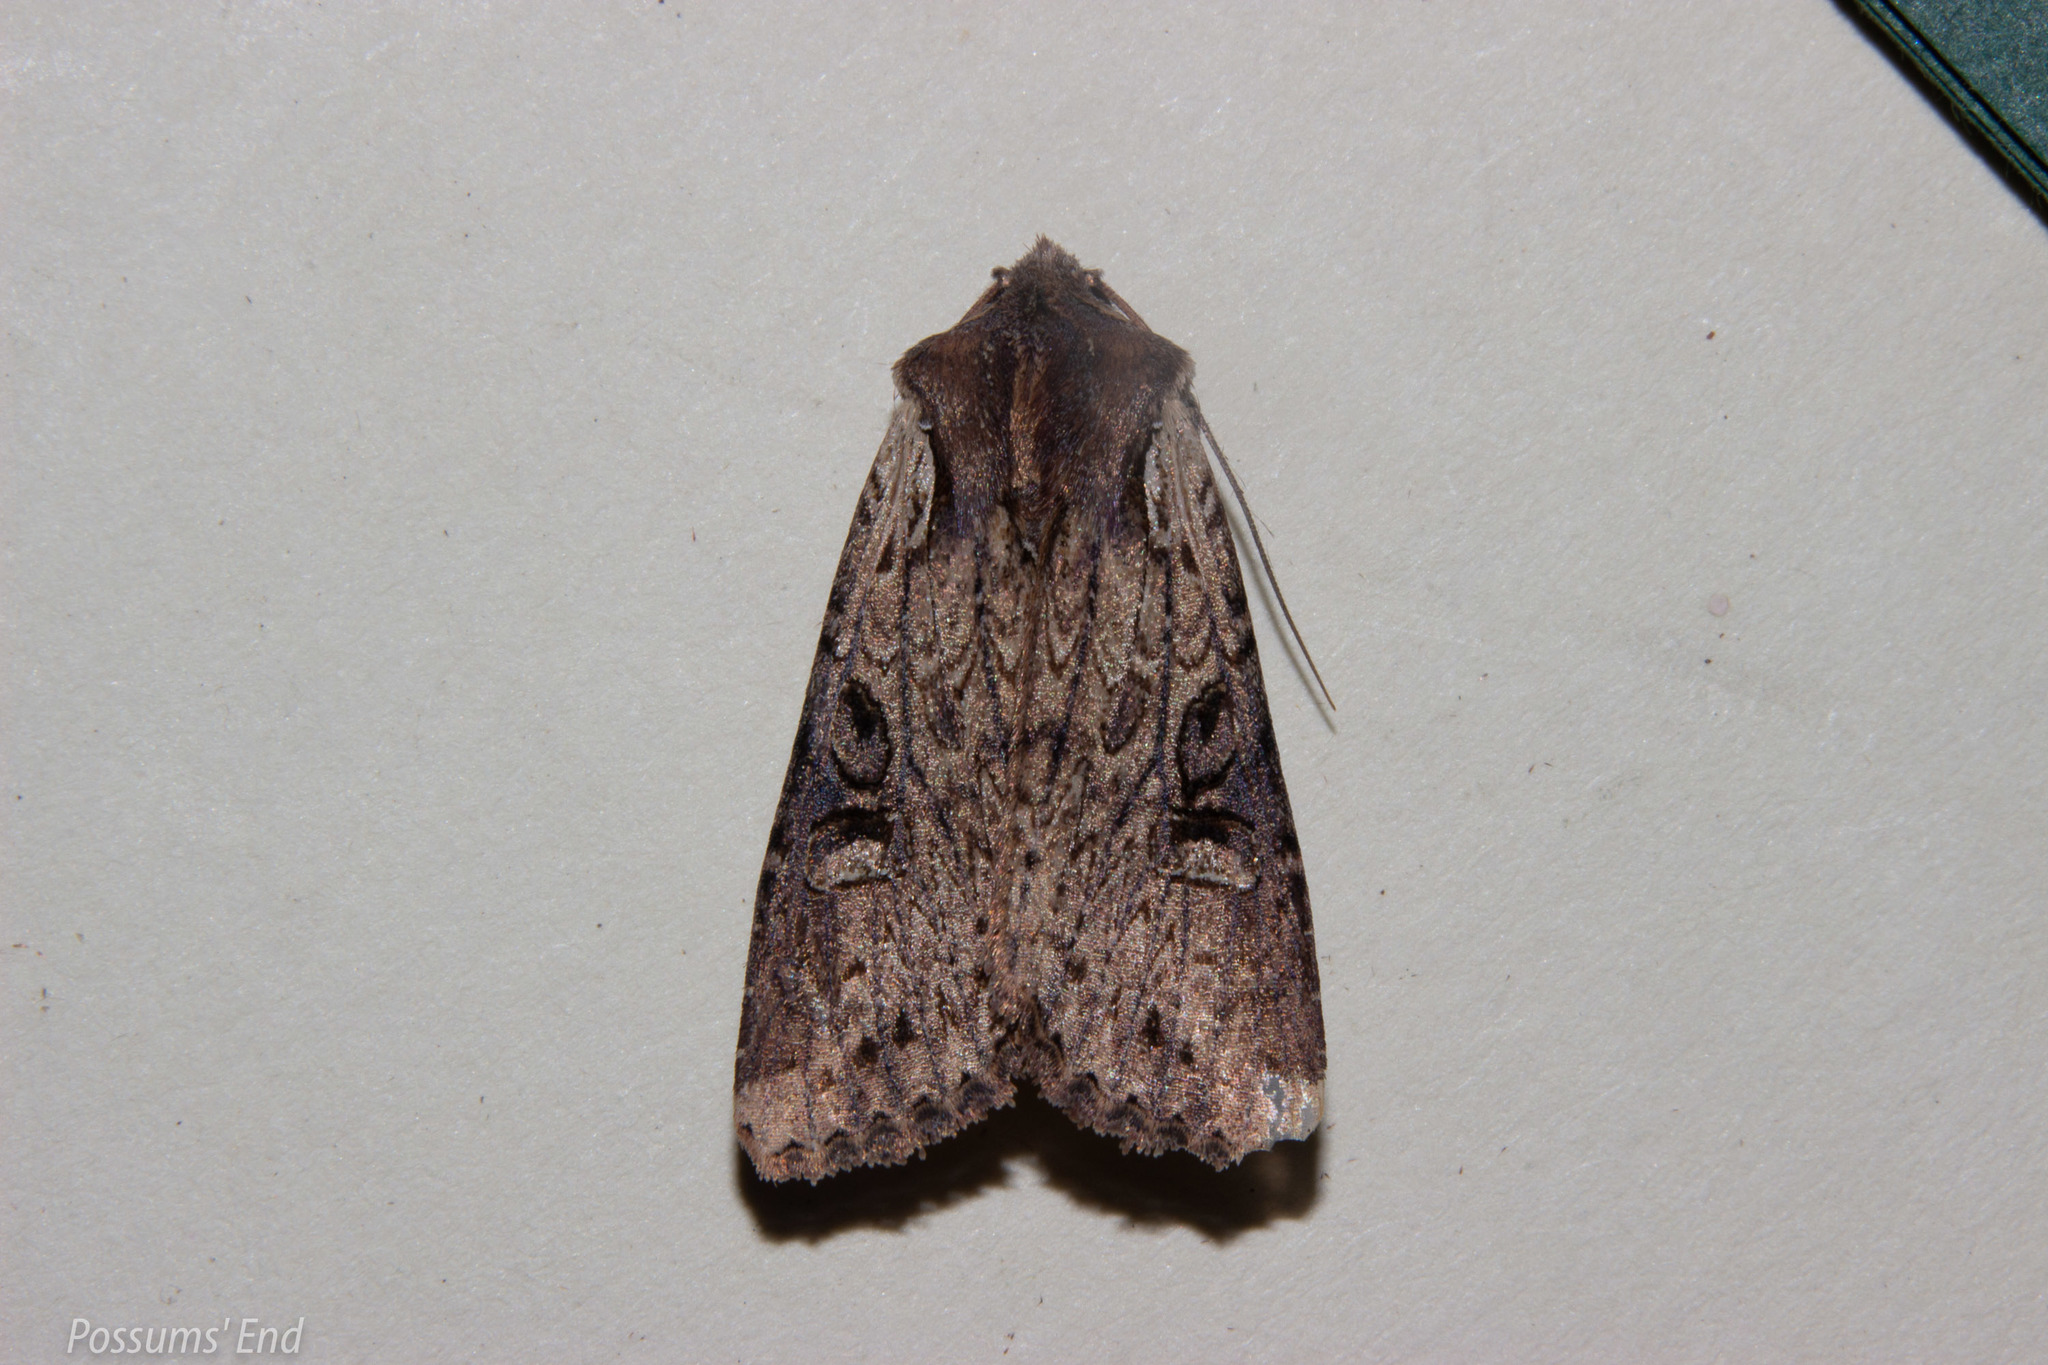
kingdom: Animalia
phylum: Arthropoda
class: Insecta
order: Lepidoptera
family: Noctuidae
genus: Ichneutica
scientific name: Ichneutica omoplaca
